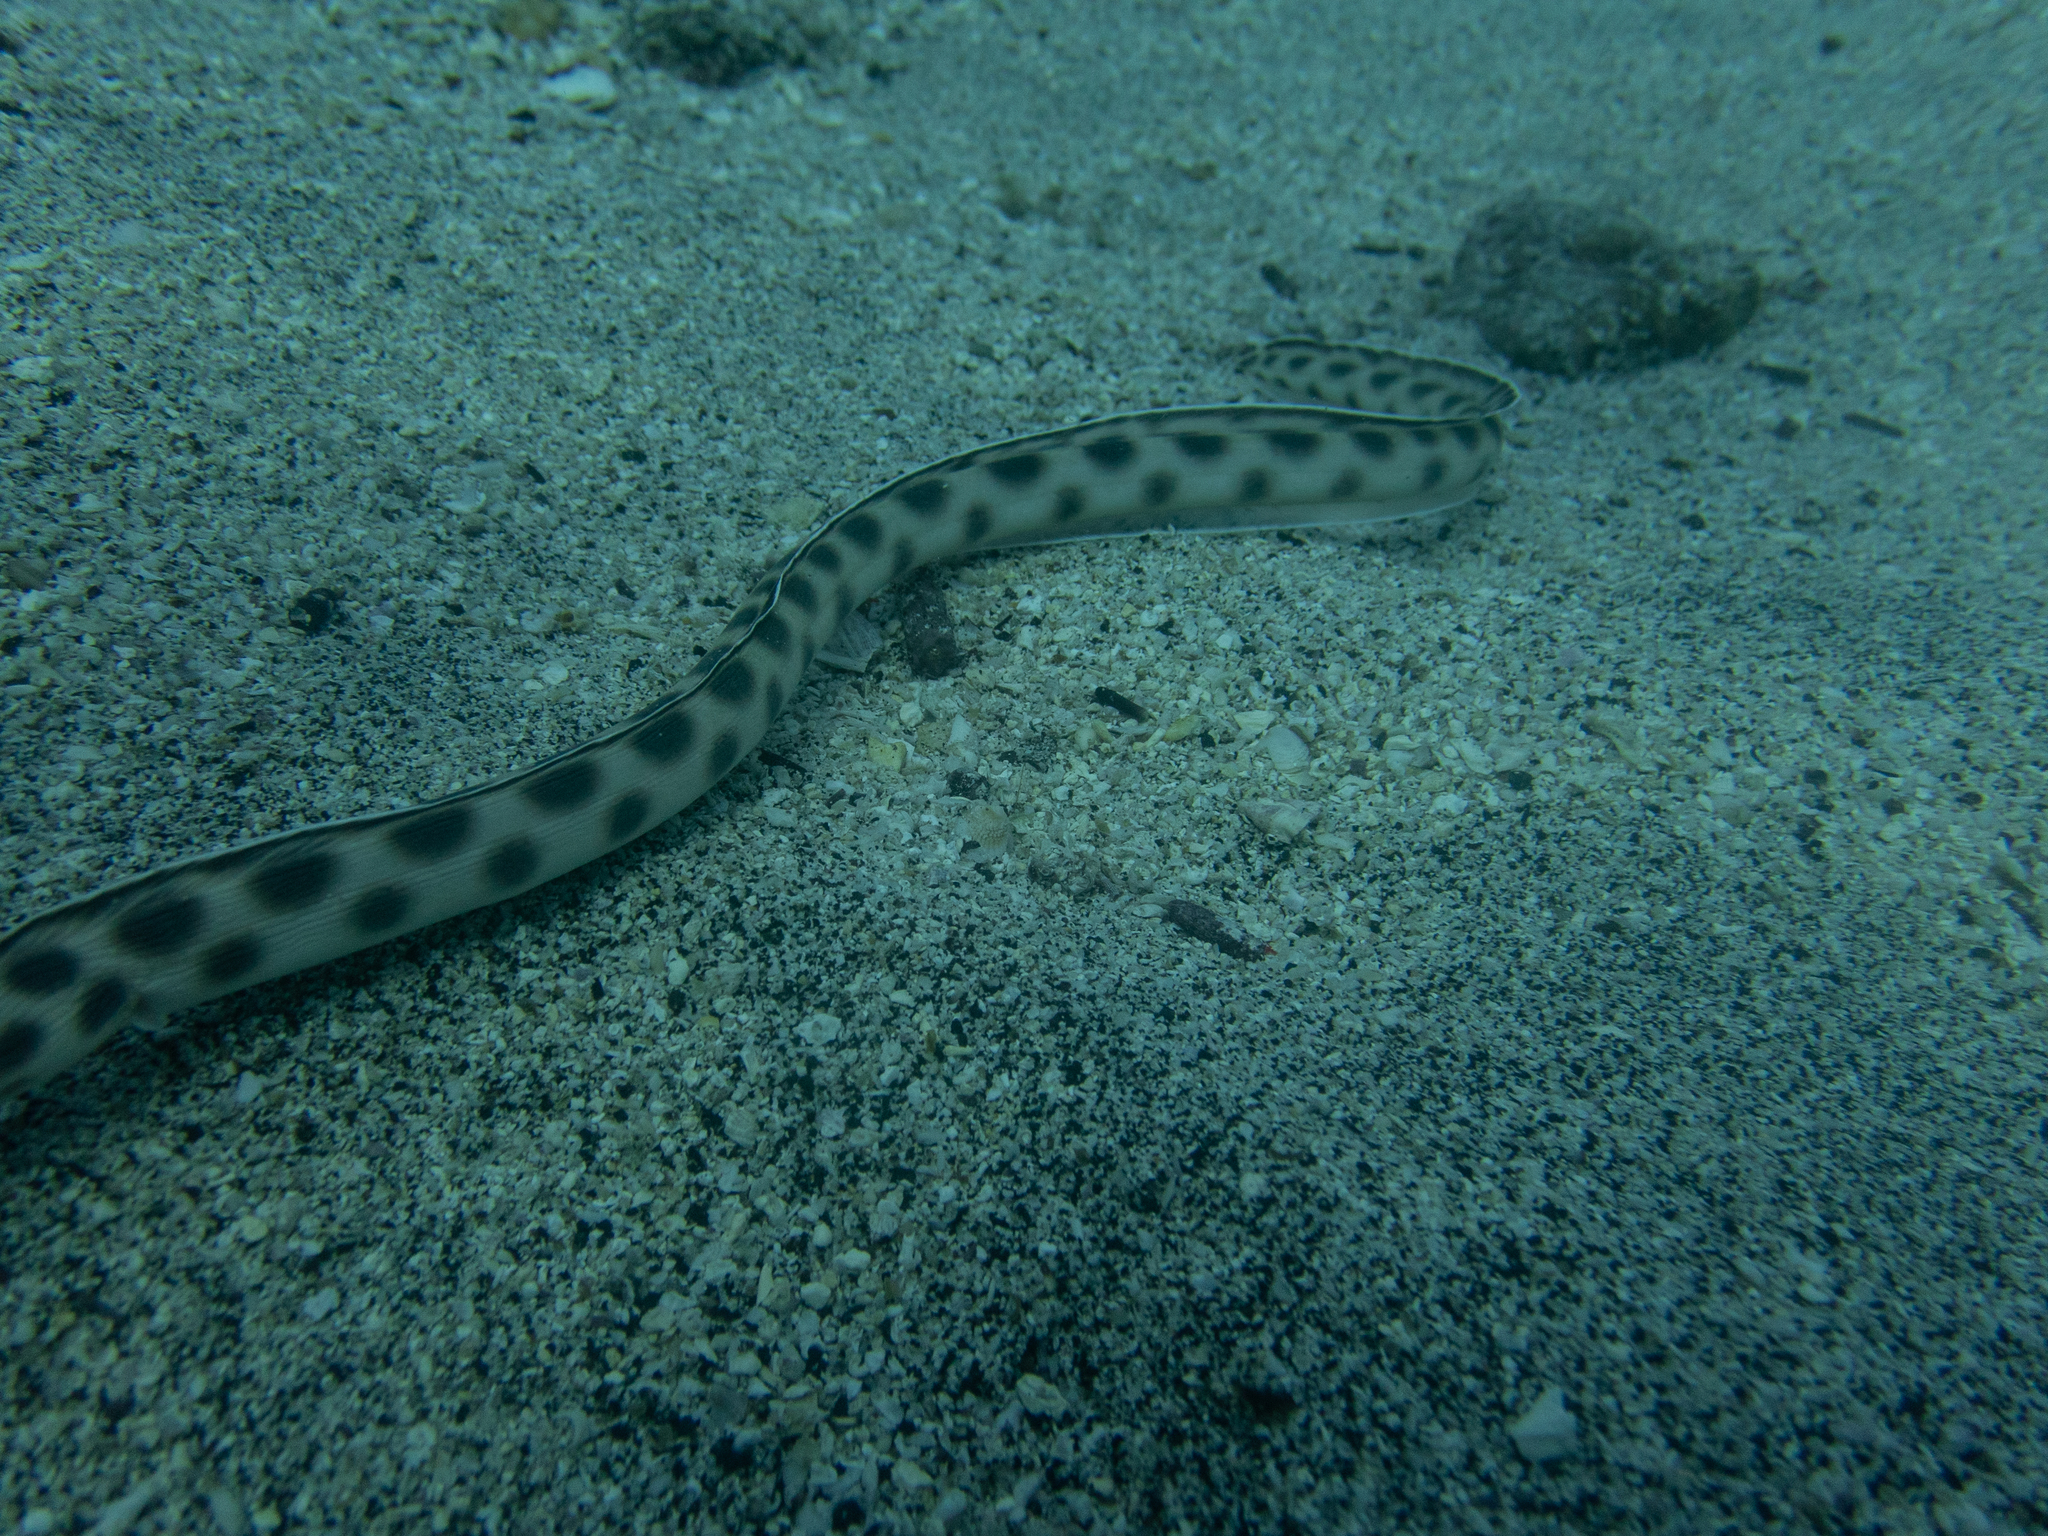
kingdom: Animalia
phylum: Chordata
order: Anguilliformes
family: Ophichthidae
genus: Myrichthys
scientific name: Myrichthys xysturus
